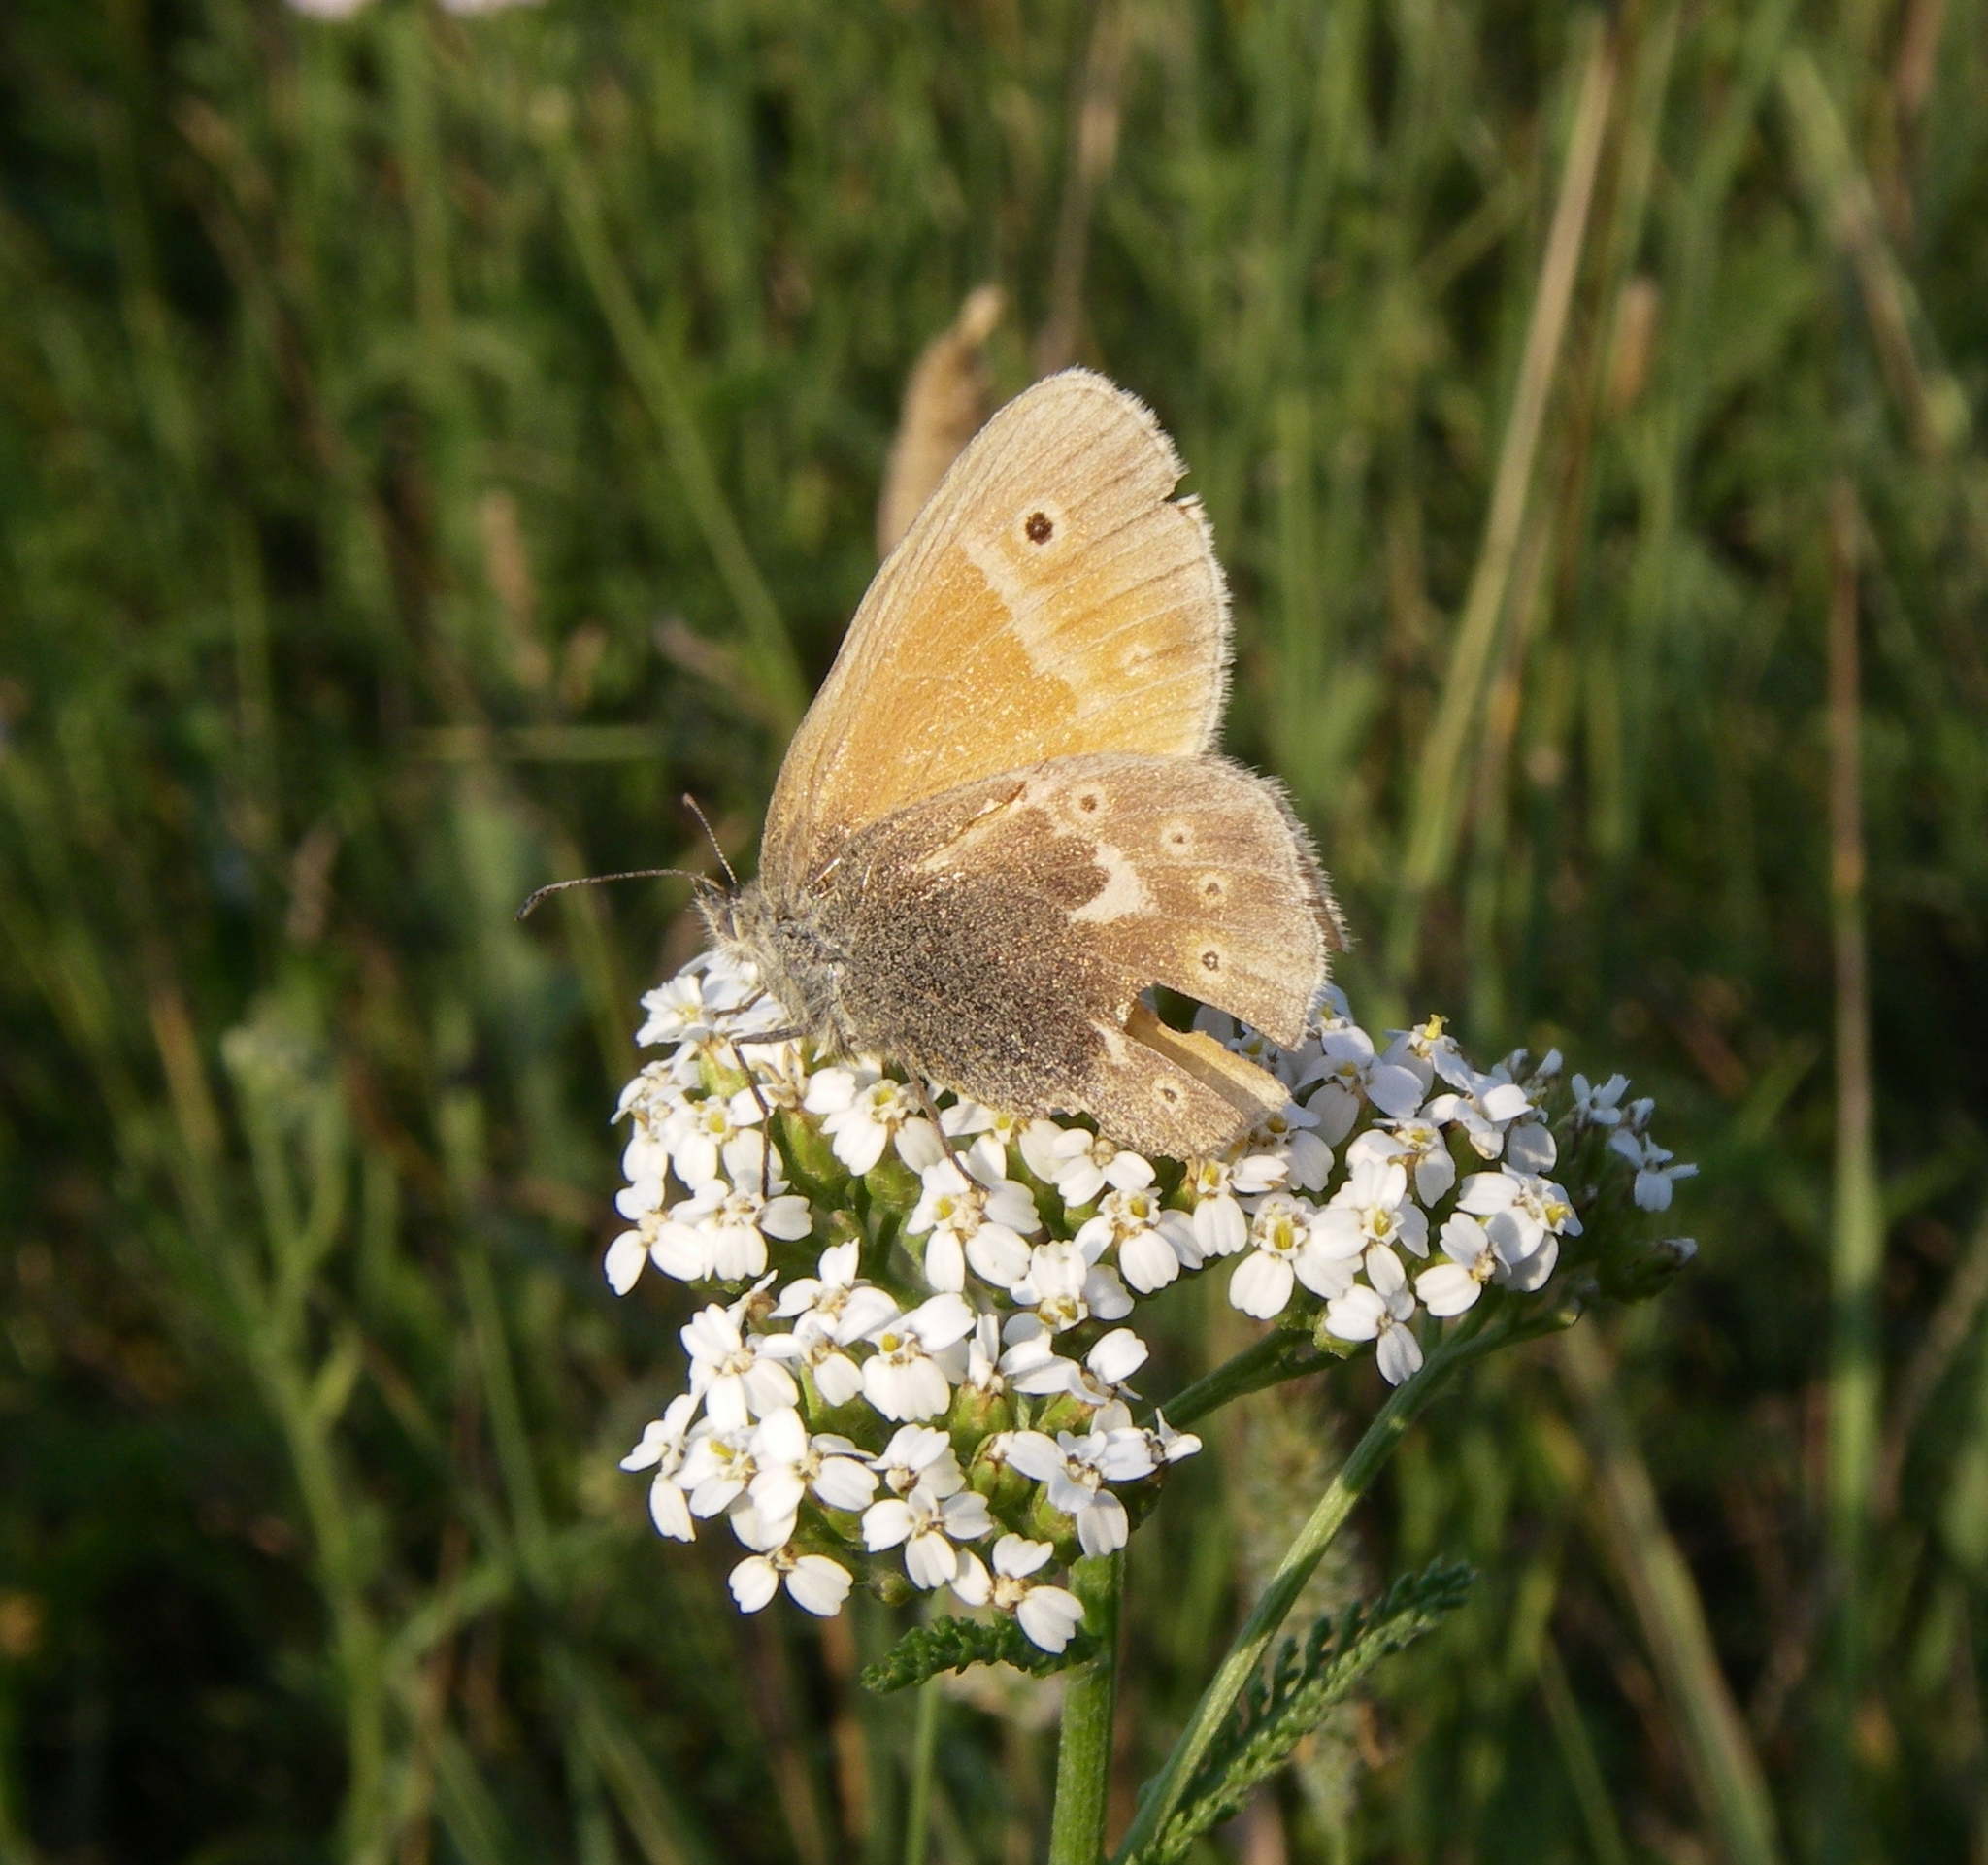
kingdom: Animalia
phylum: Arthropoda
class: Insecta
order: Lepidoptera
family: Nymphalidae
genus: Coenonympha
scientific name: Coenonympha tullia
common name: Large heath
